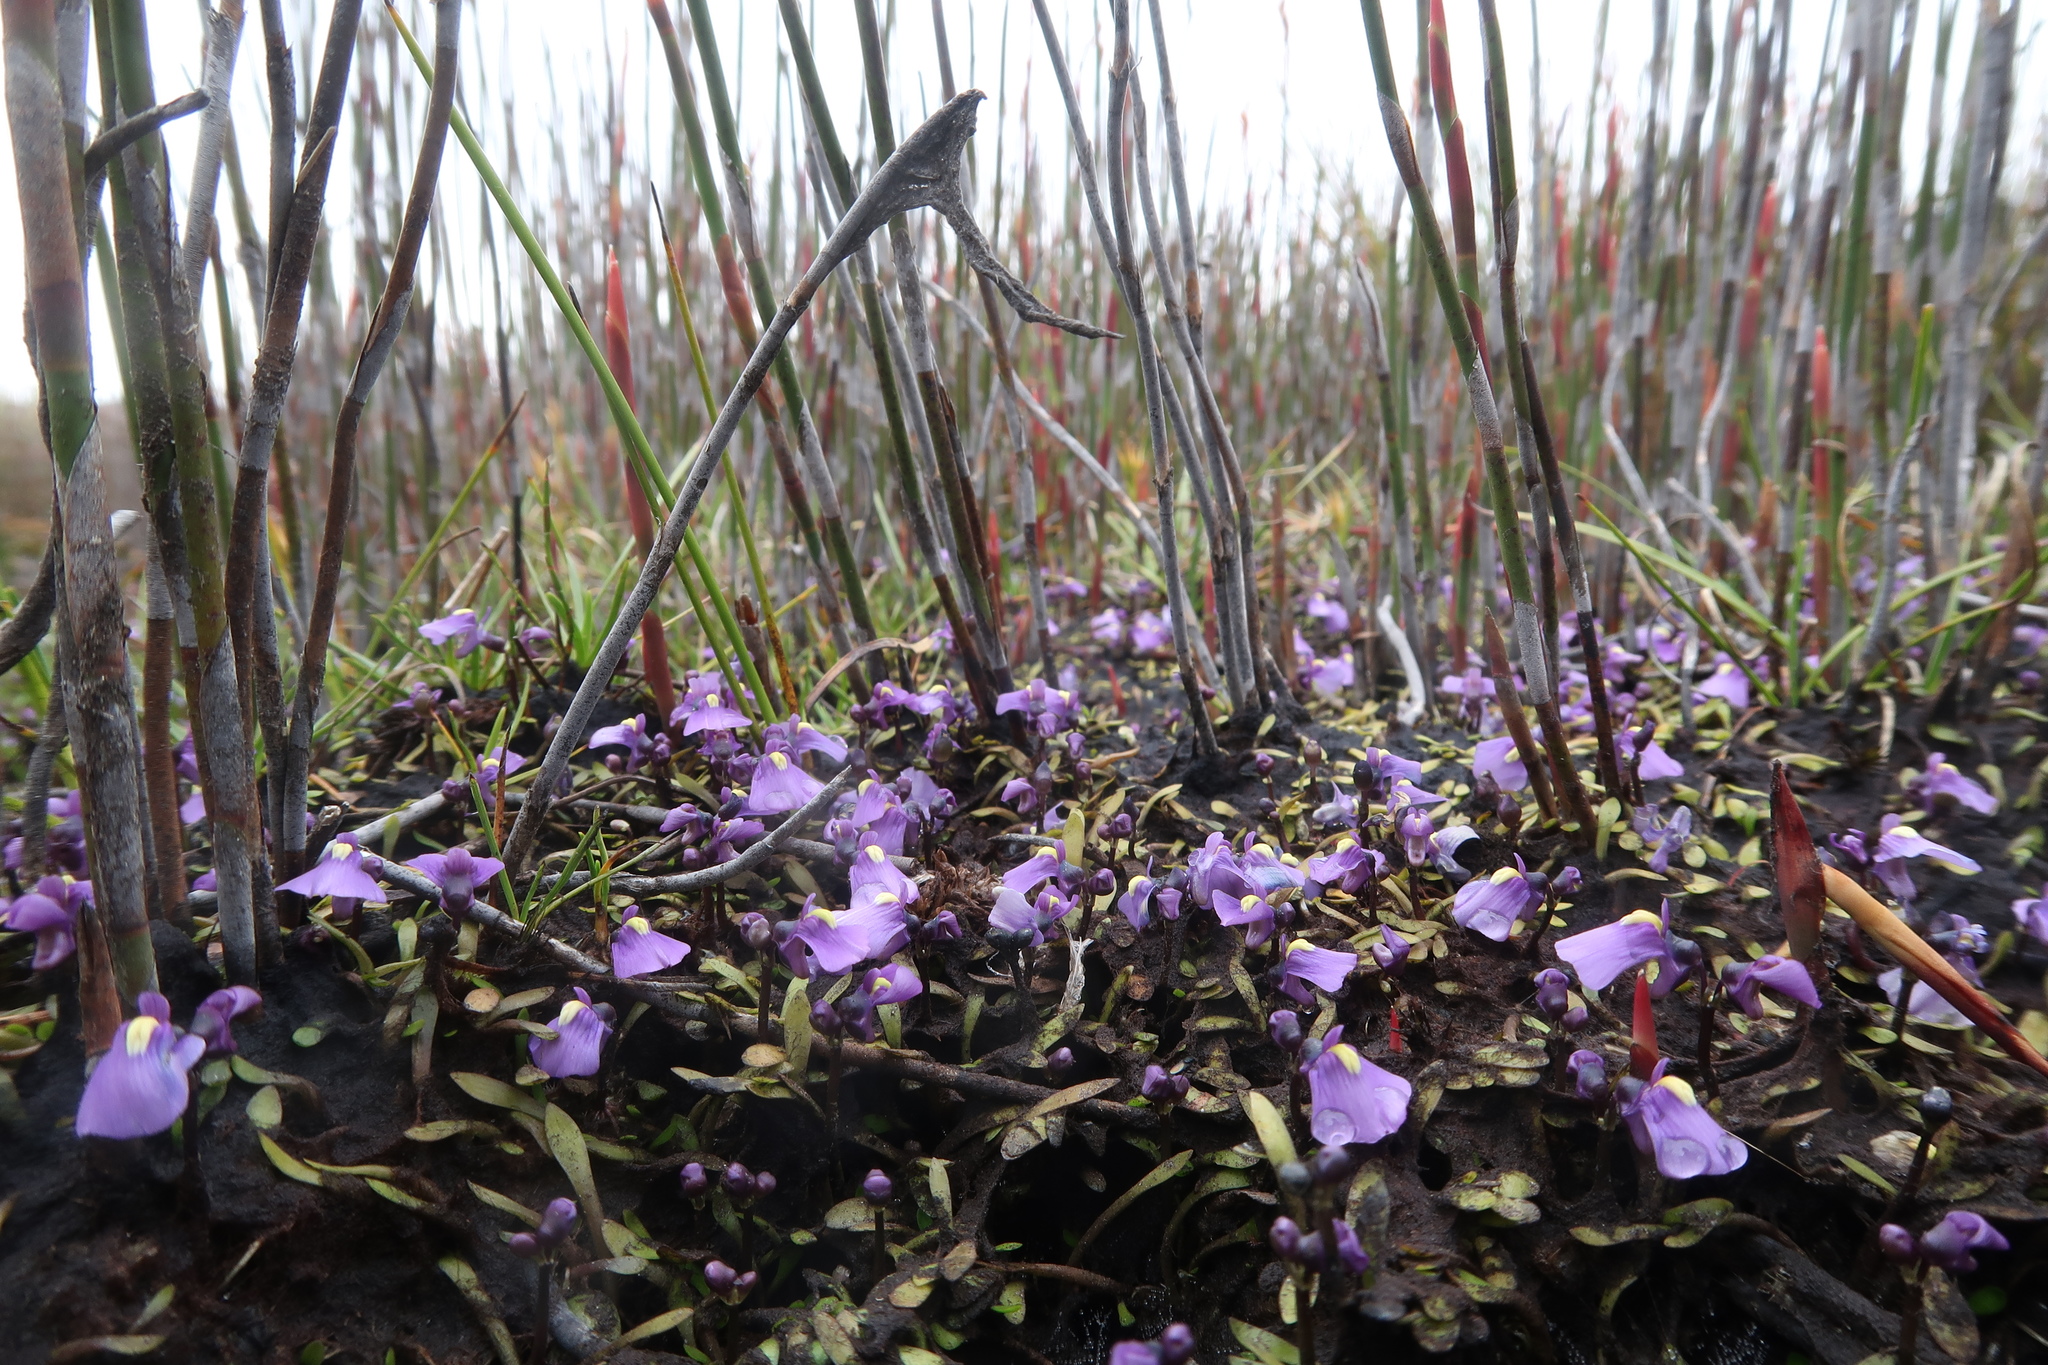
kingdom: Plantae
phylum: Tracheophyta
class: Magnoliopsida
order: Lamiales
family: Lentibulariaceae
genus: Utricularia
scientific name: Utricularia dichotoma
